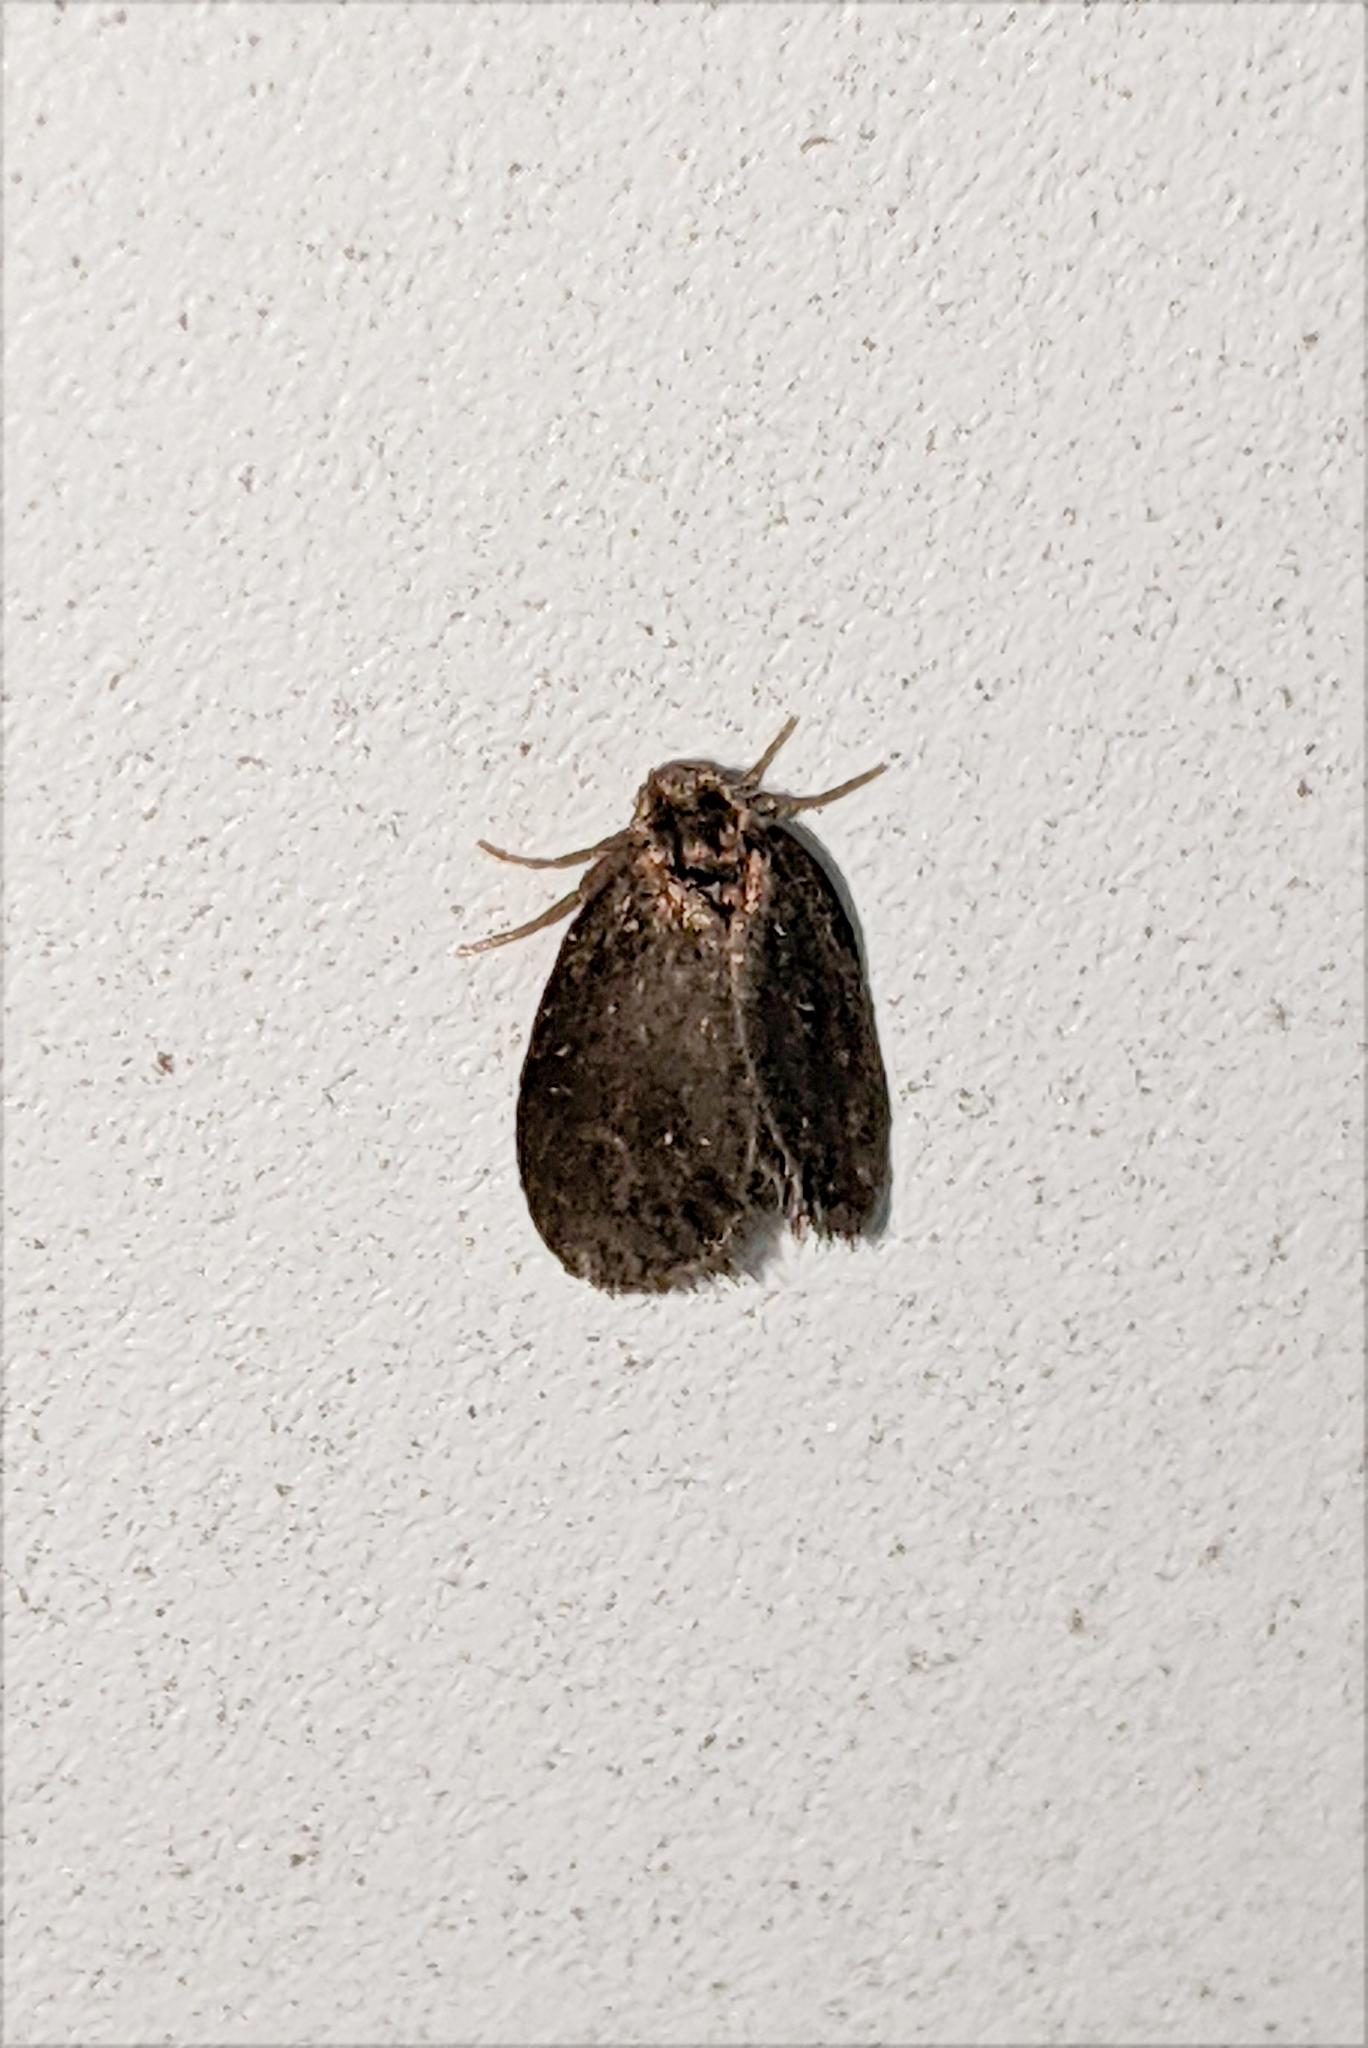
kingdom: Animalia
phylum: Arthropoda
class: Insecta
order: Lepidoptera
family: Psychidae
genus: Psyche
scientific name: Psyche casta
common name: Common sweep
